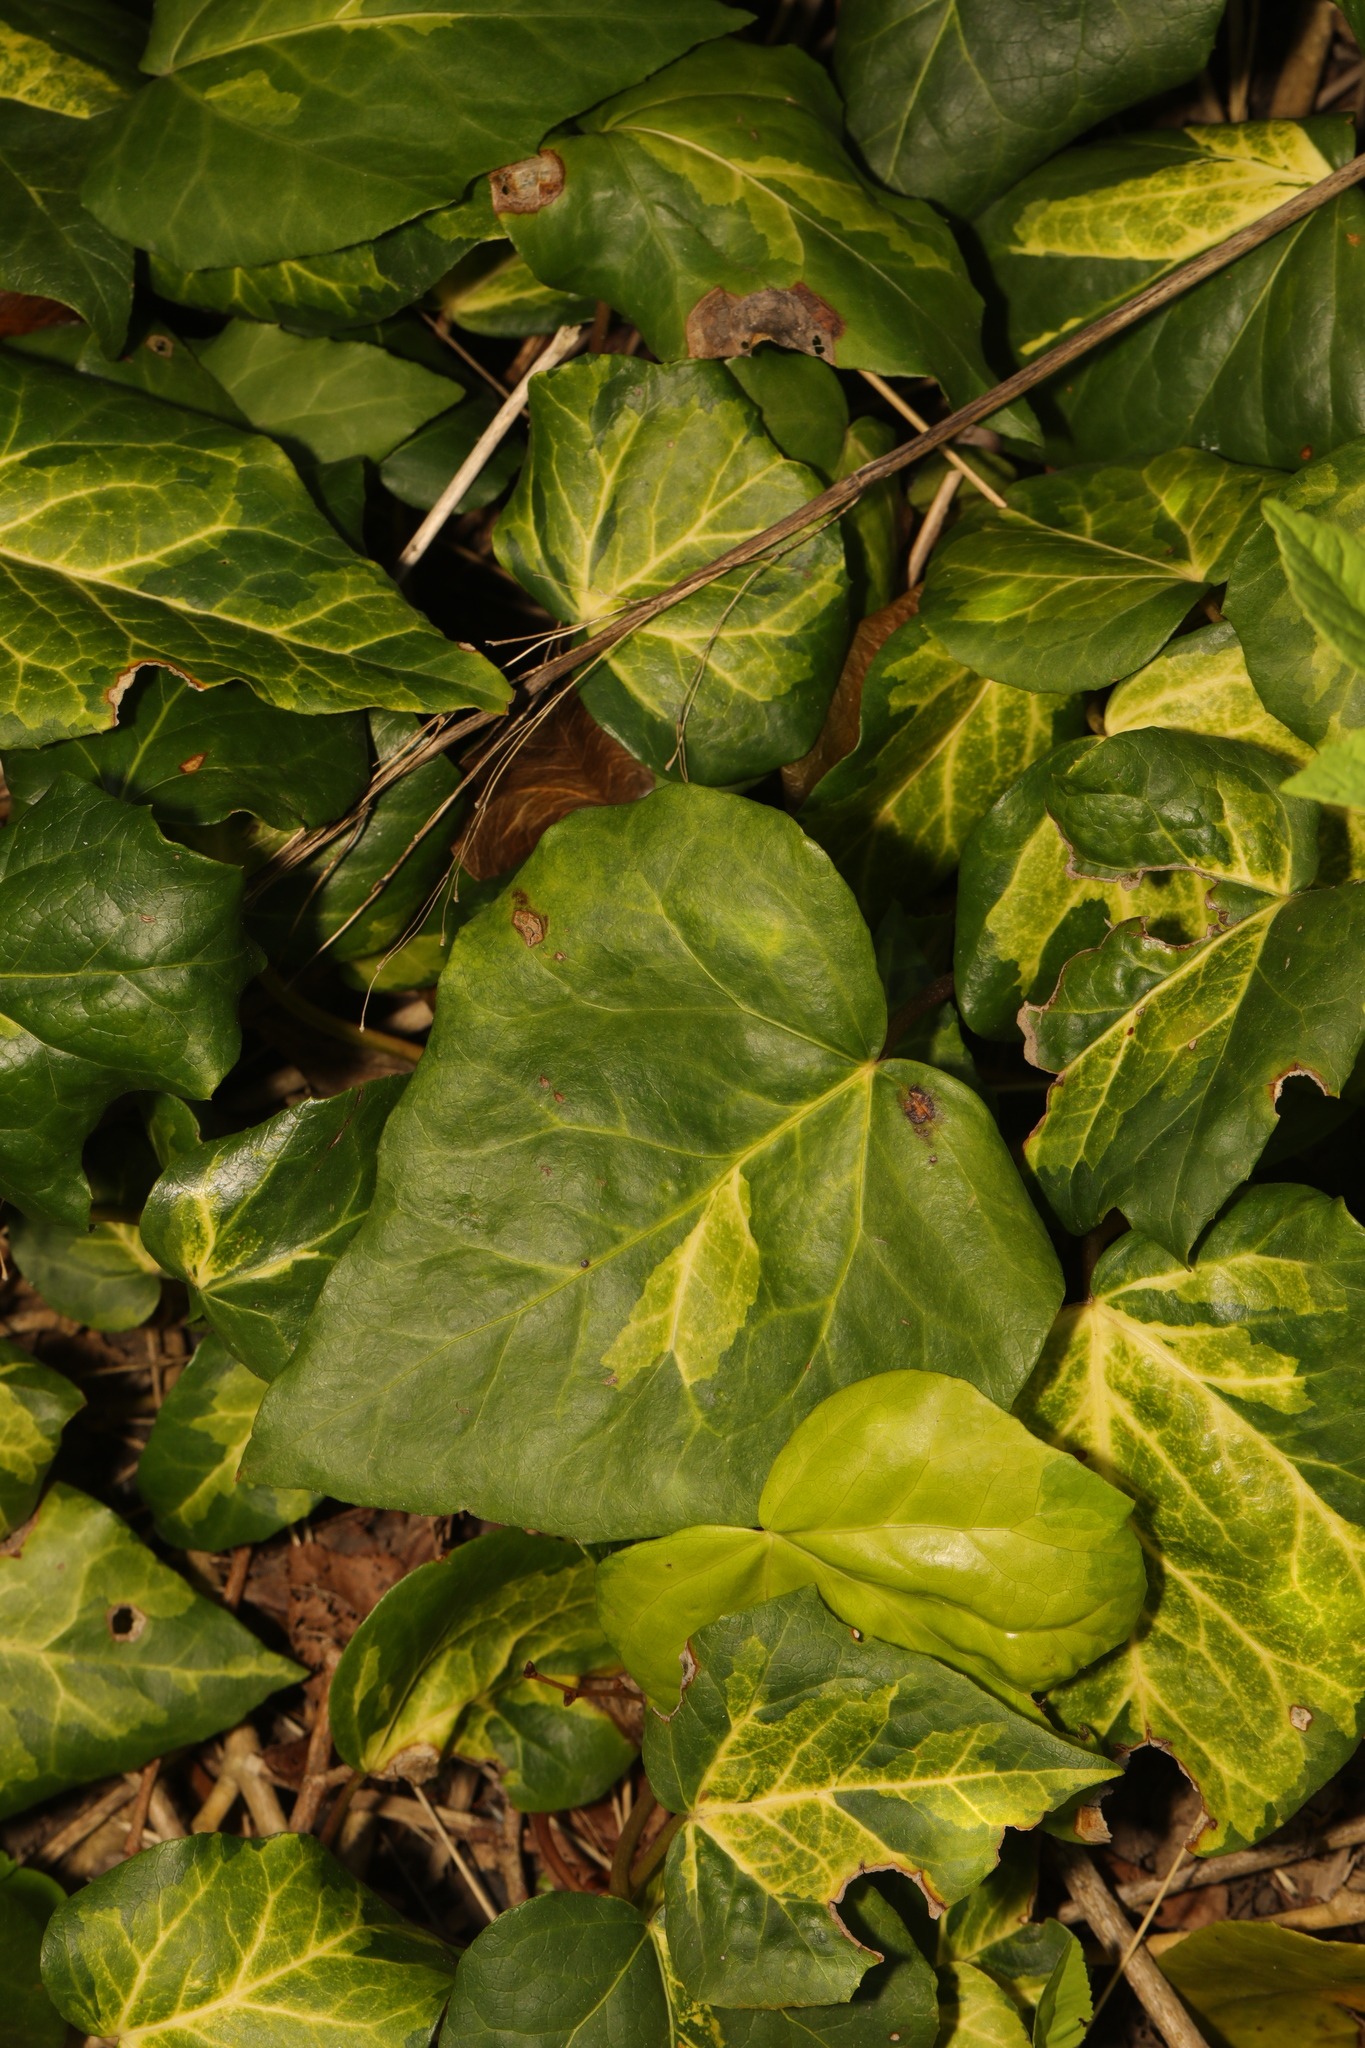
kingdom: Plantae
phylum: Tracheophyta
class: Magnoliopsida
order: Apiales
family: Araliaceae
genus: Hedera
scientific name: Hedera colchica
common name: Persian ivy
